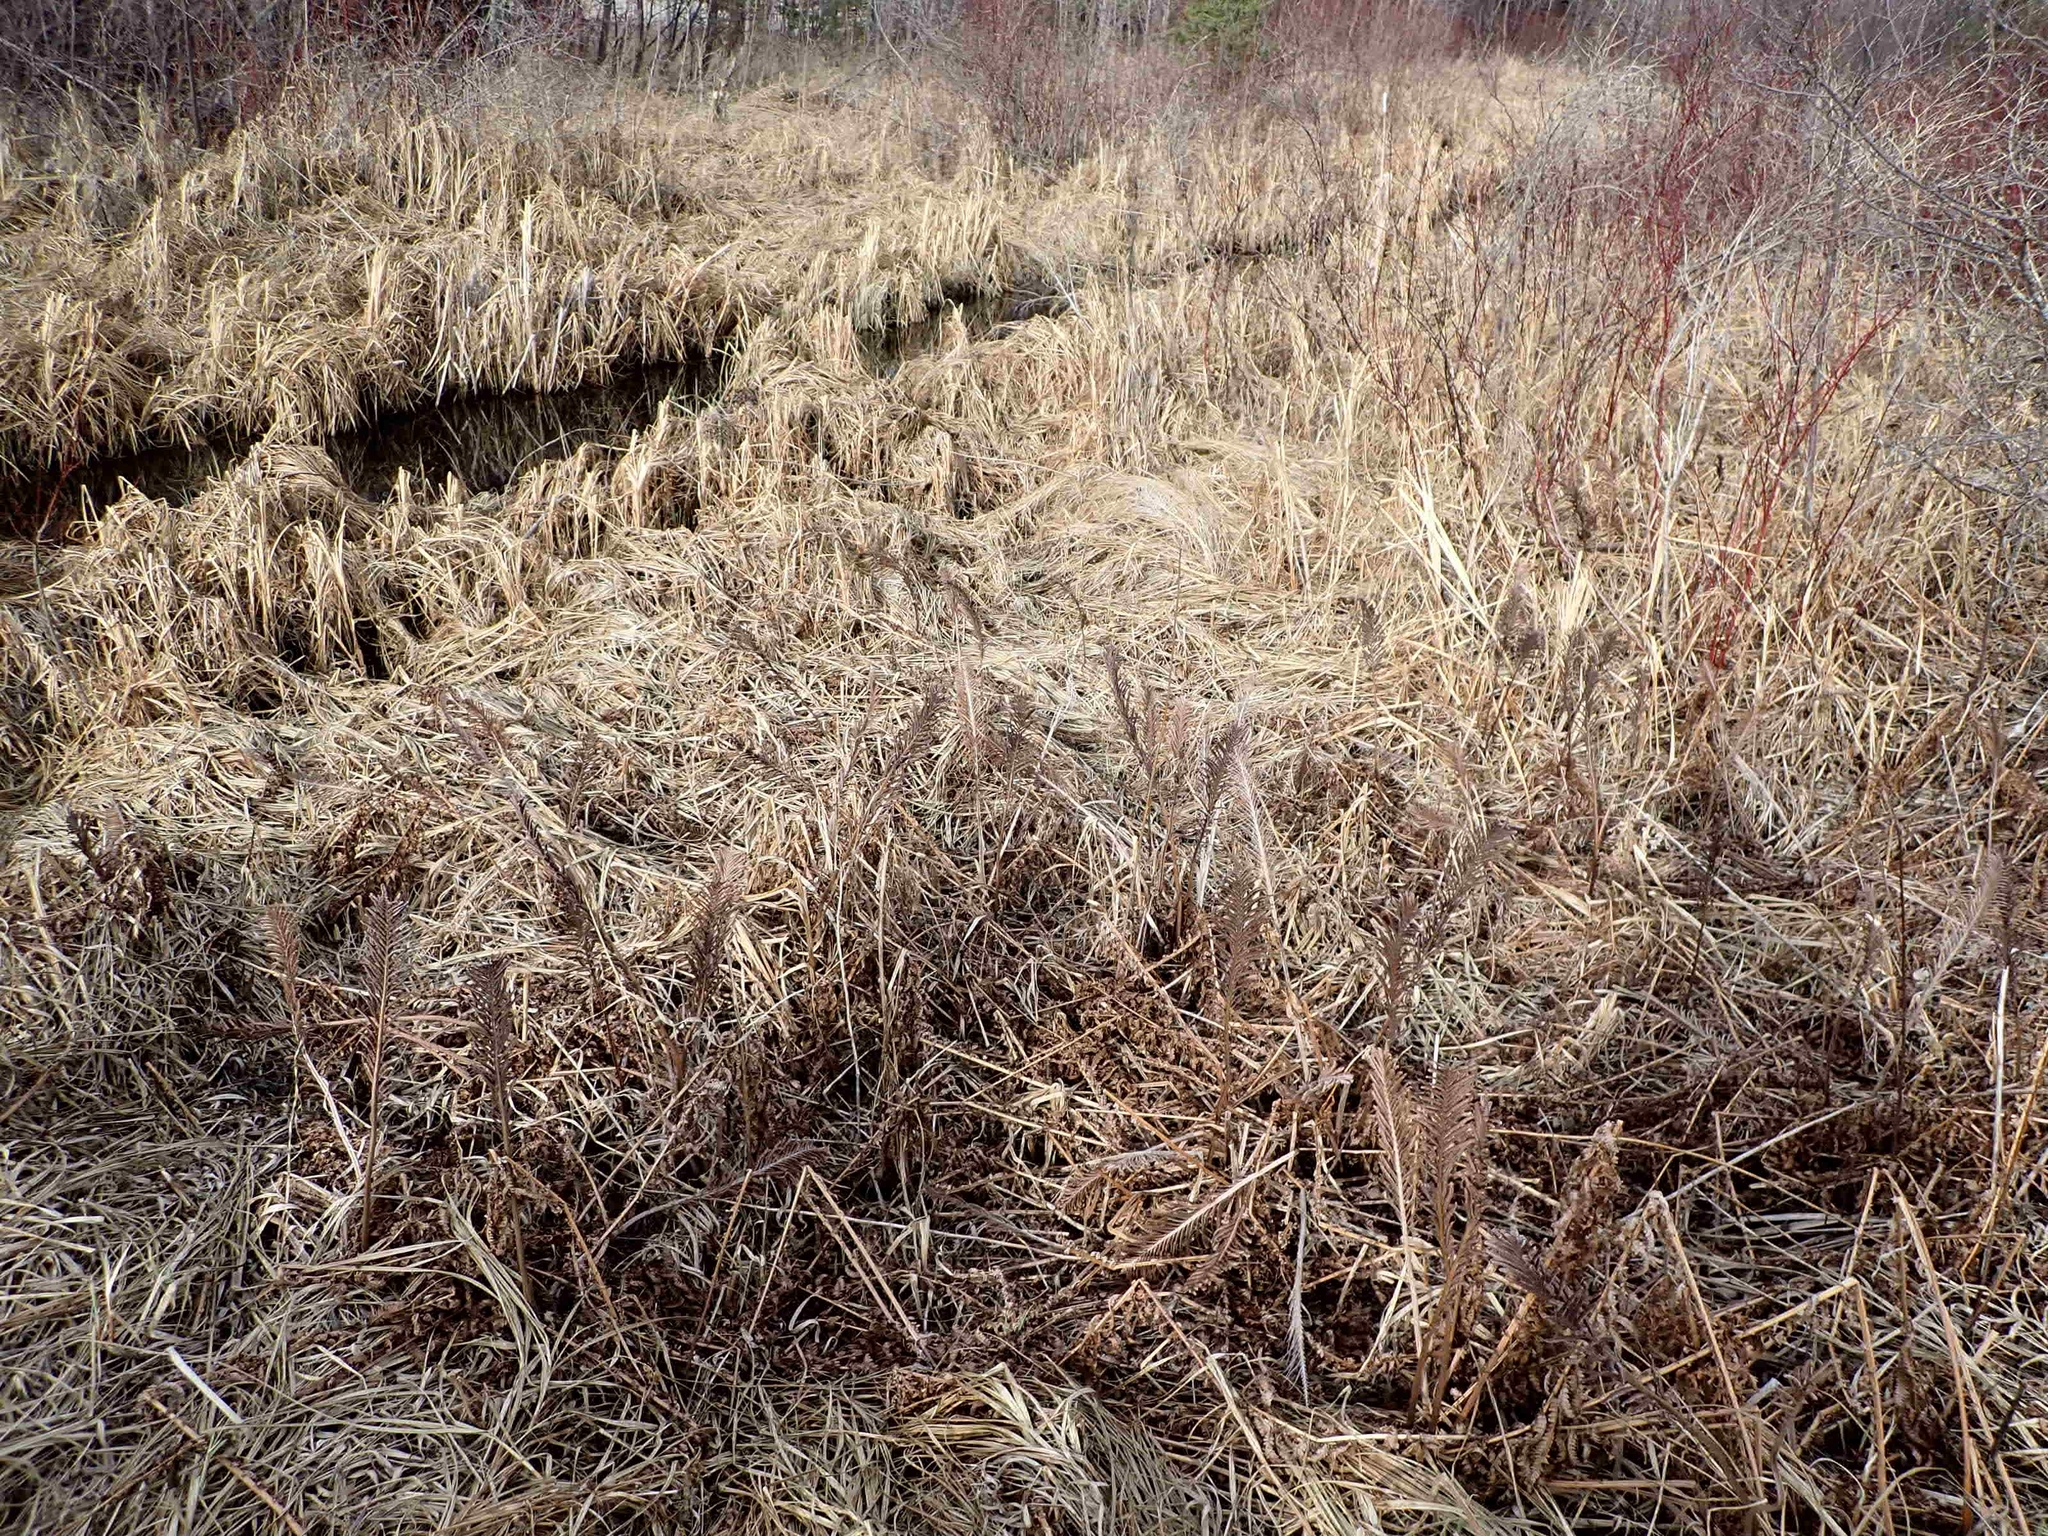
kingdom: Plantae
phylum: Tracheophyta
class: Polypodiopsida
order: Polypodiales
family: Onocleaceae
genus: Matteuccia
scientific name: Matteuccia struthiopteris
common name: Ostrich fern
